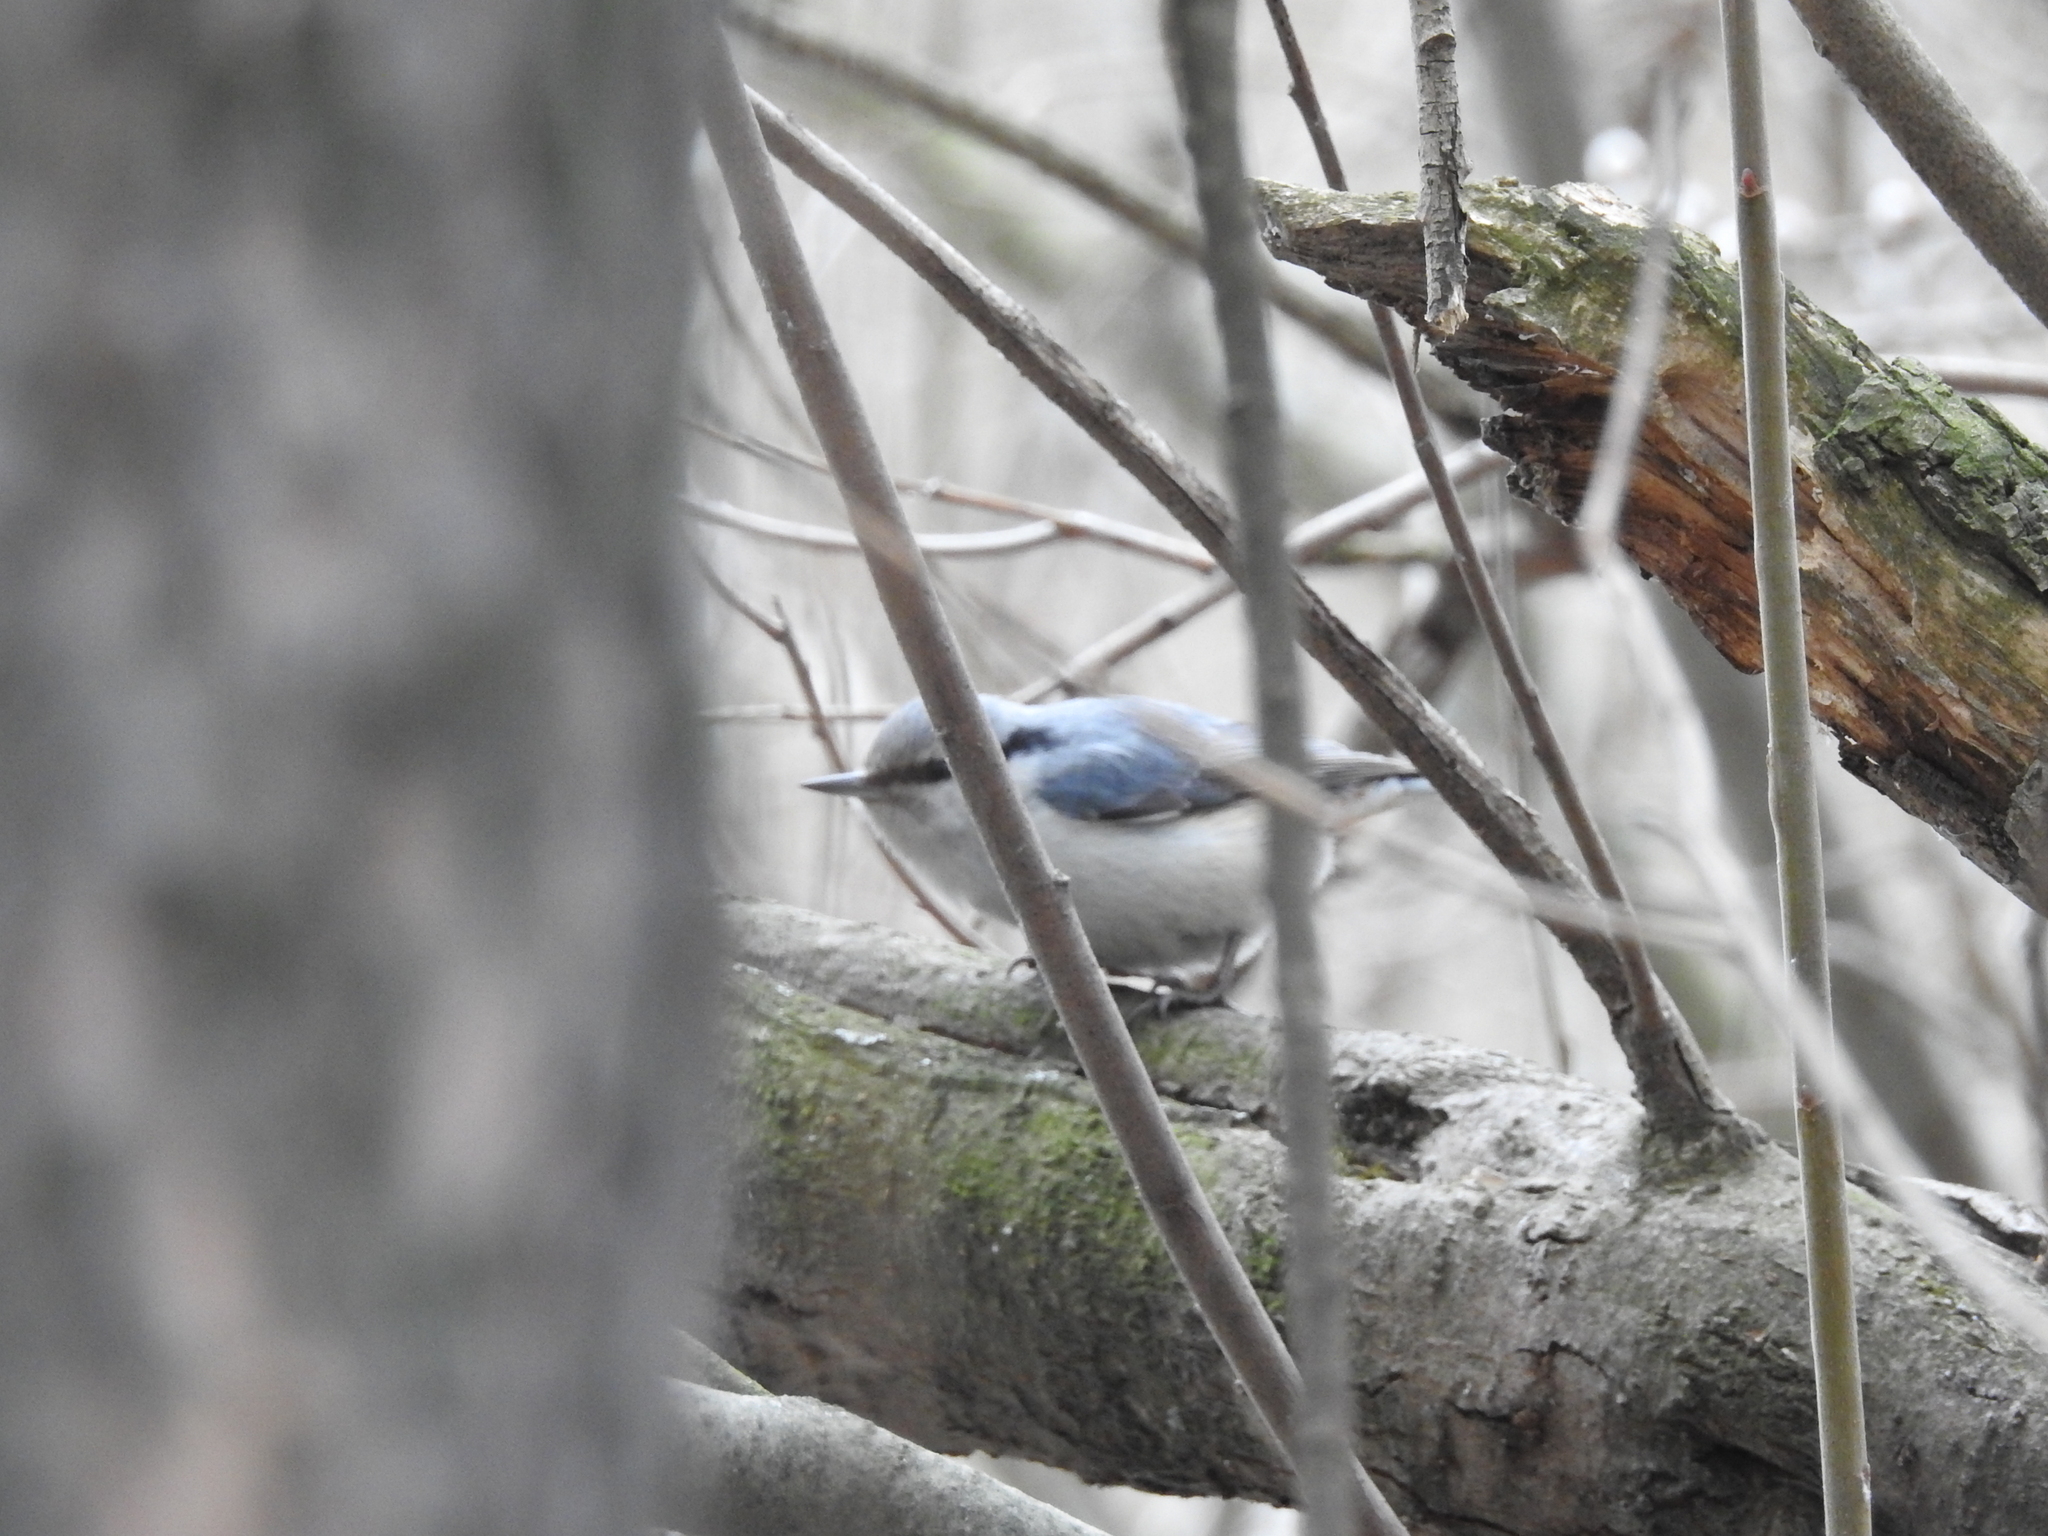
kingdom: Animalia
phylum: Chordata
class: Aves
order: Passeriformes
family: Sittidae
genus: Sitta
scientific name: Sitta europaea
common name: Eurasian nuthatch
